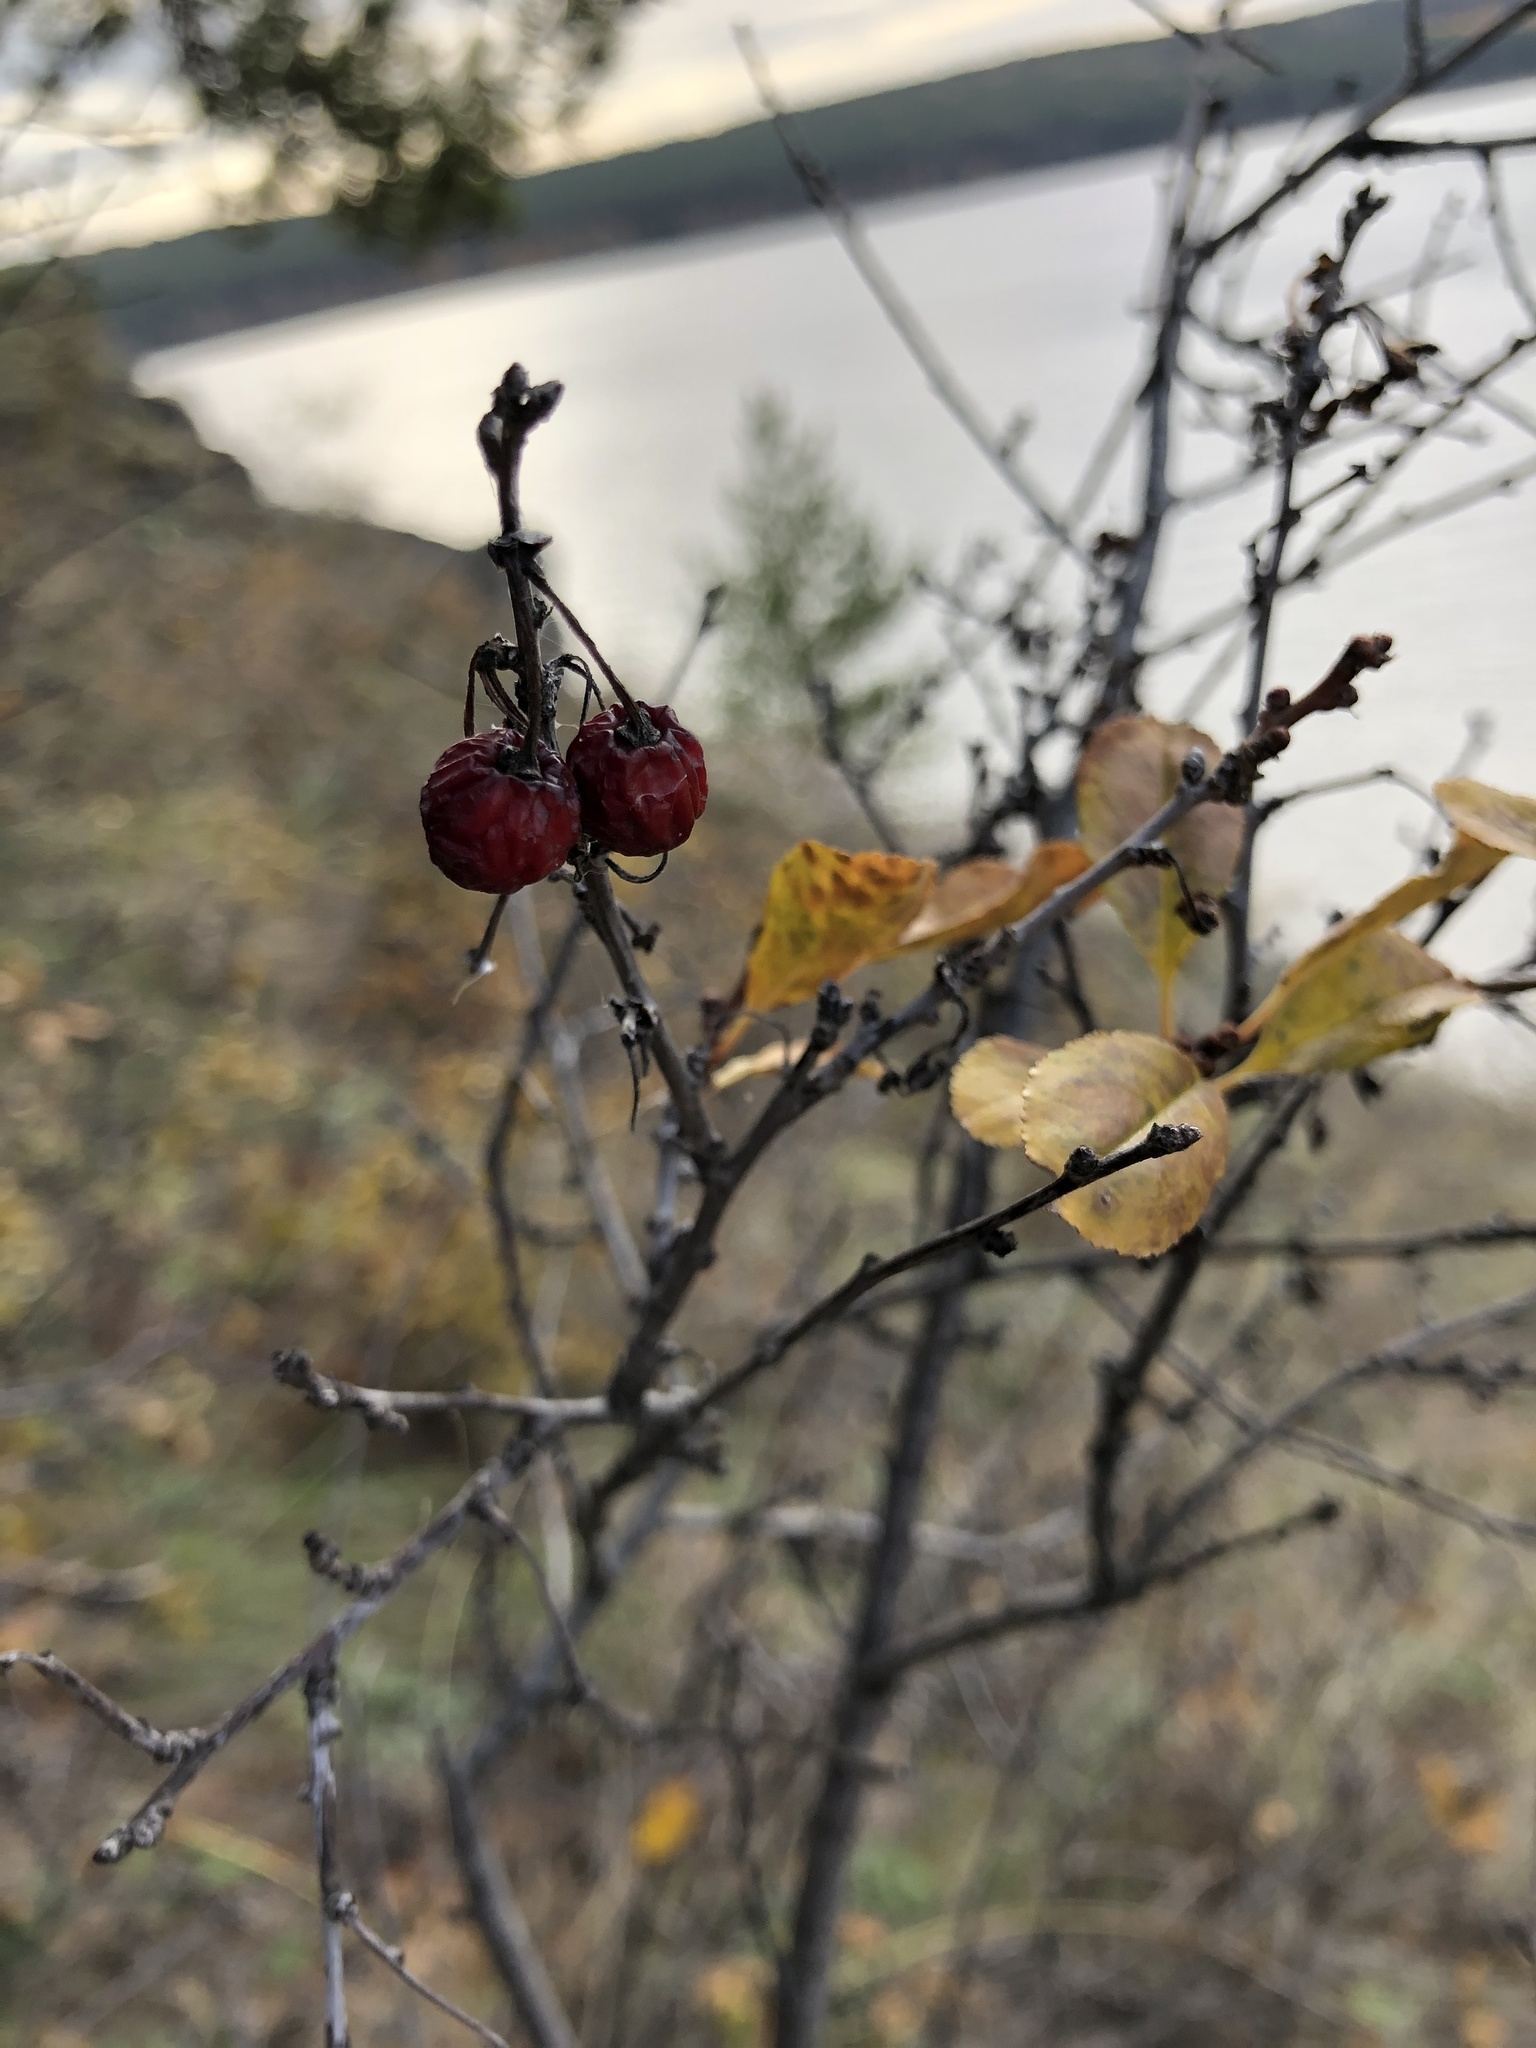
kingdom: Plantae
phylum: Tracheophyta
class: Magnoliopsida
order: Rosales
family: Rosaceae
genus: Prunus
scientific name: Prunus fruticosa
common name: European dwarf cherry
